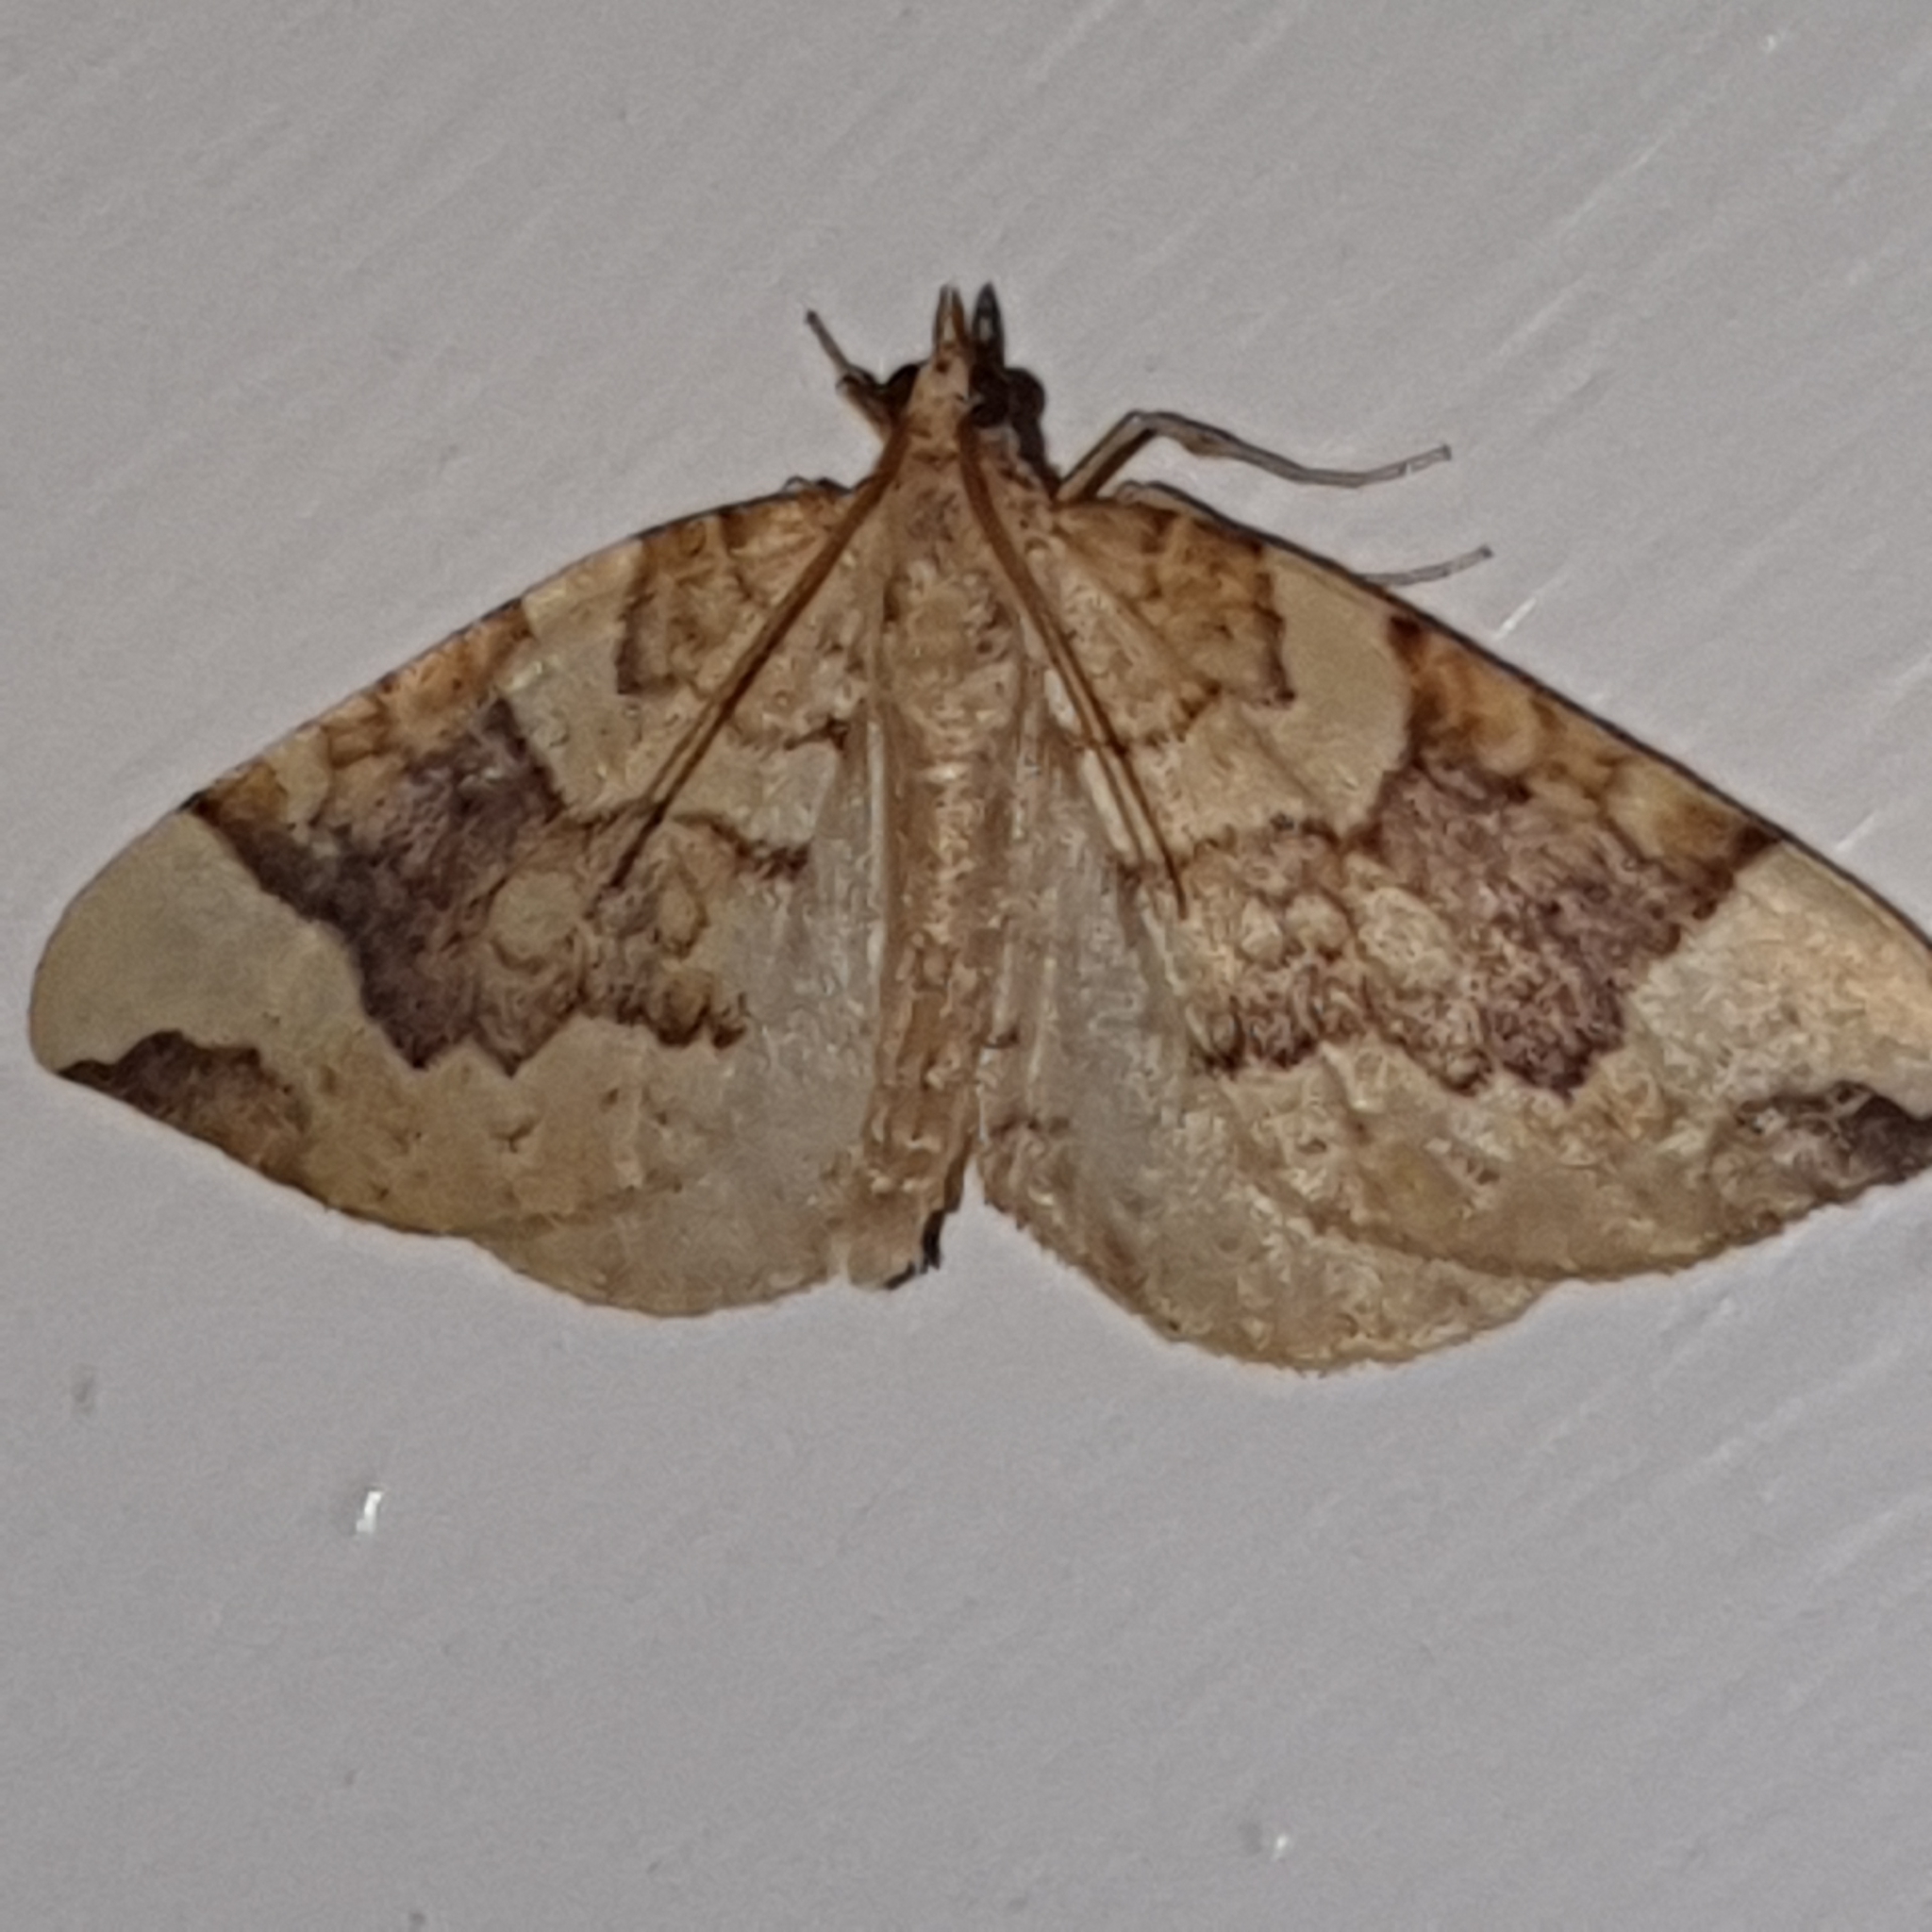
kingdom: Animalia
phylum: Arthropoda
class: Insecta
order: Lepidoptera
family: Geometridae
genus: Eulithis
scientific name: Eulithis populata
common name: Northern spinach
